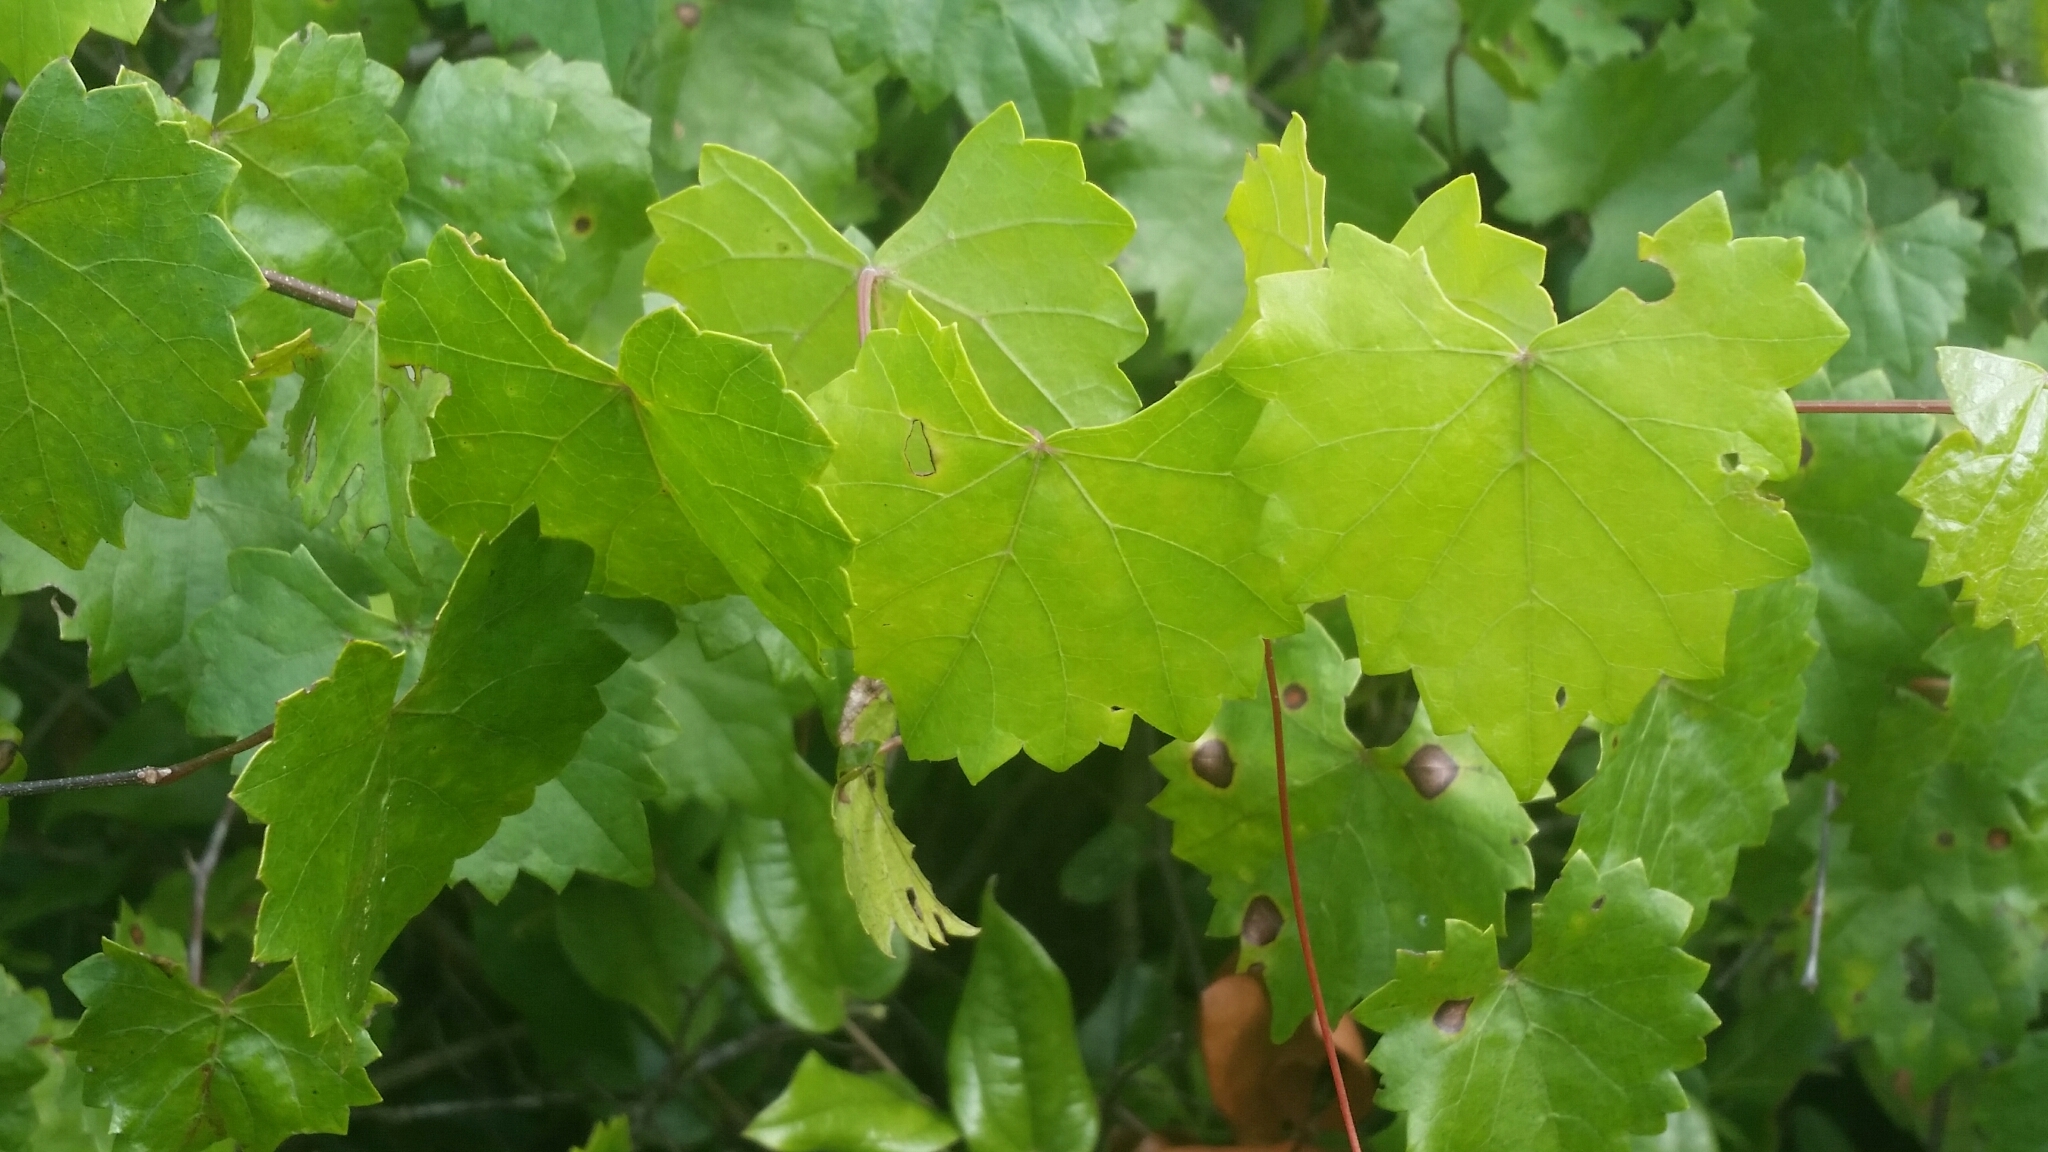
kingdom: Plantae
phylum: Tracheophyta
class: Magnoliopsida
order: Vitales
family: Vitaceae
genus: Vitis
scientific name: Vitis rotundifolia
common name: Muscadine grape
